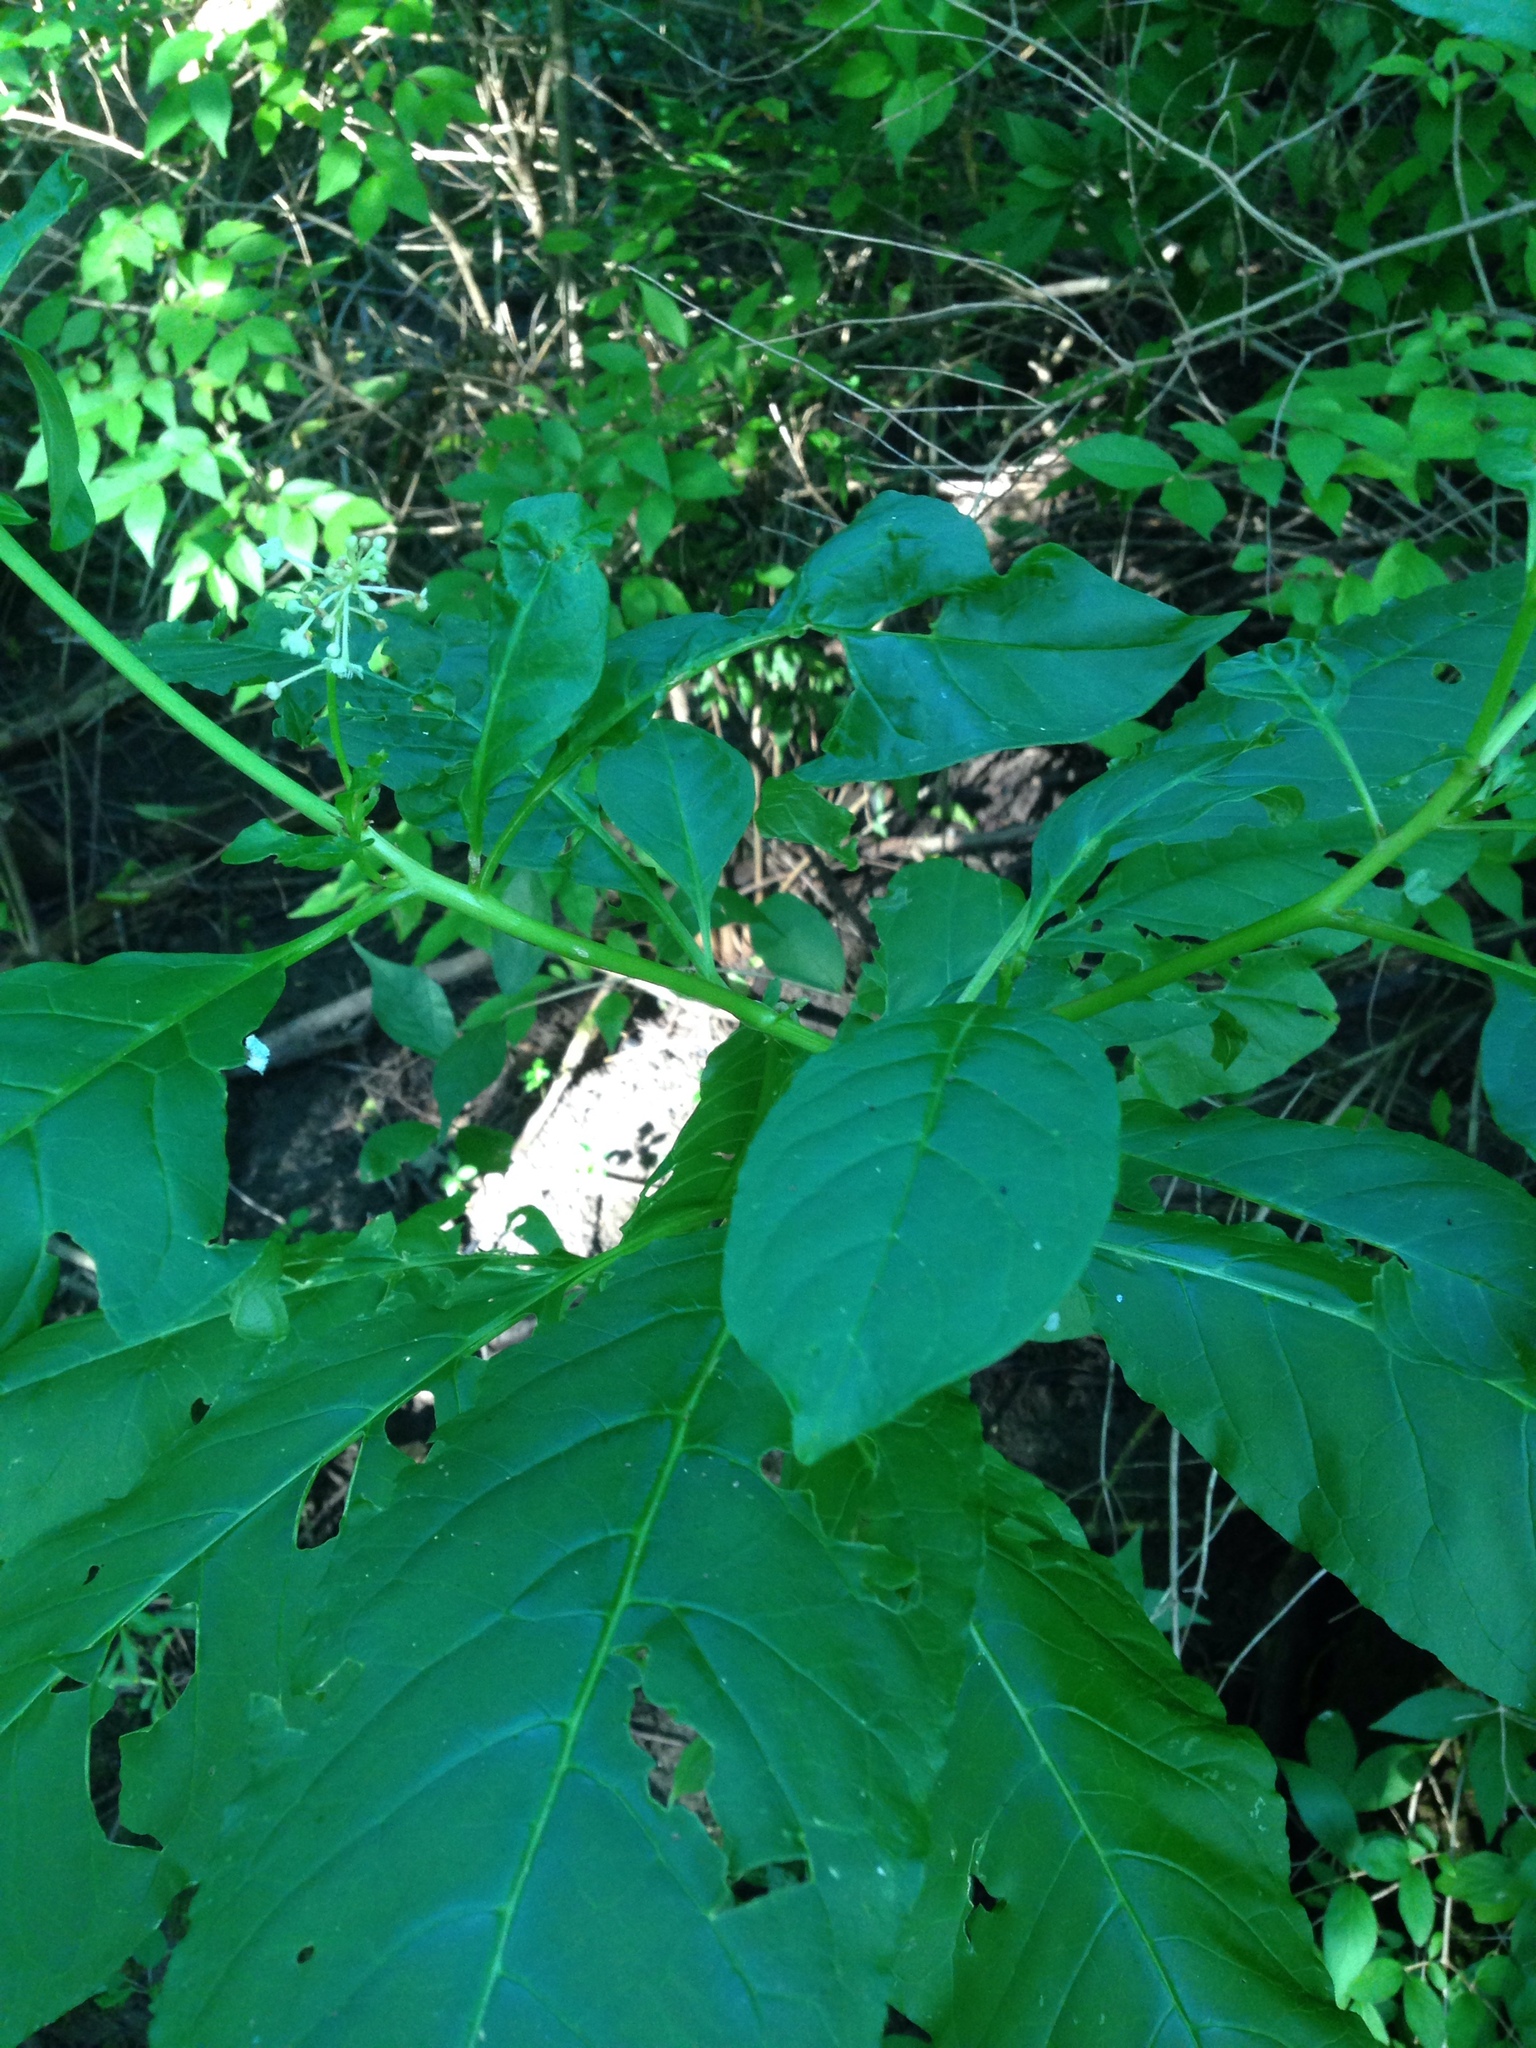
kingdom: Plantae
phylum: Tracheophyta
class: Magnoliopsida
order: Caryophyllales
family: Phytolaccaceae
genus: Phytolacca
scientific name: Phytolacca americana
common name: American pokeweed
